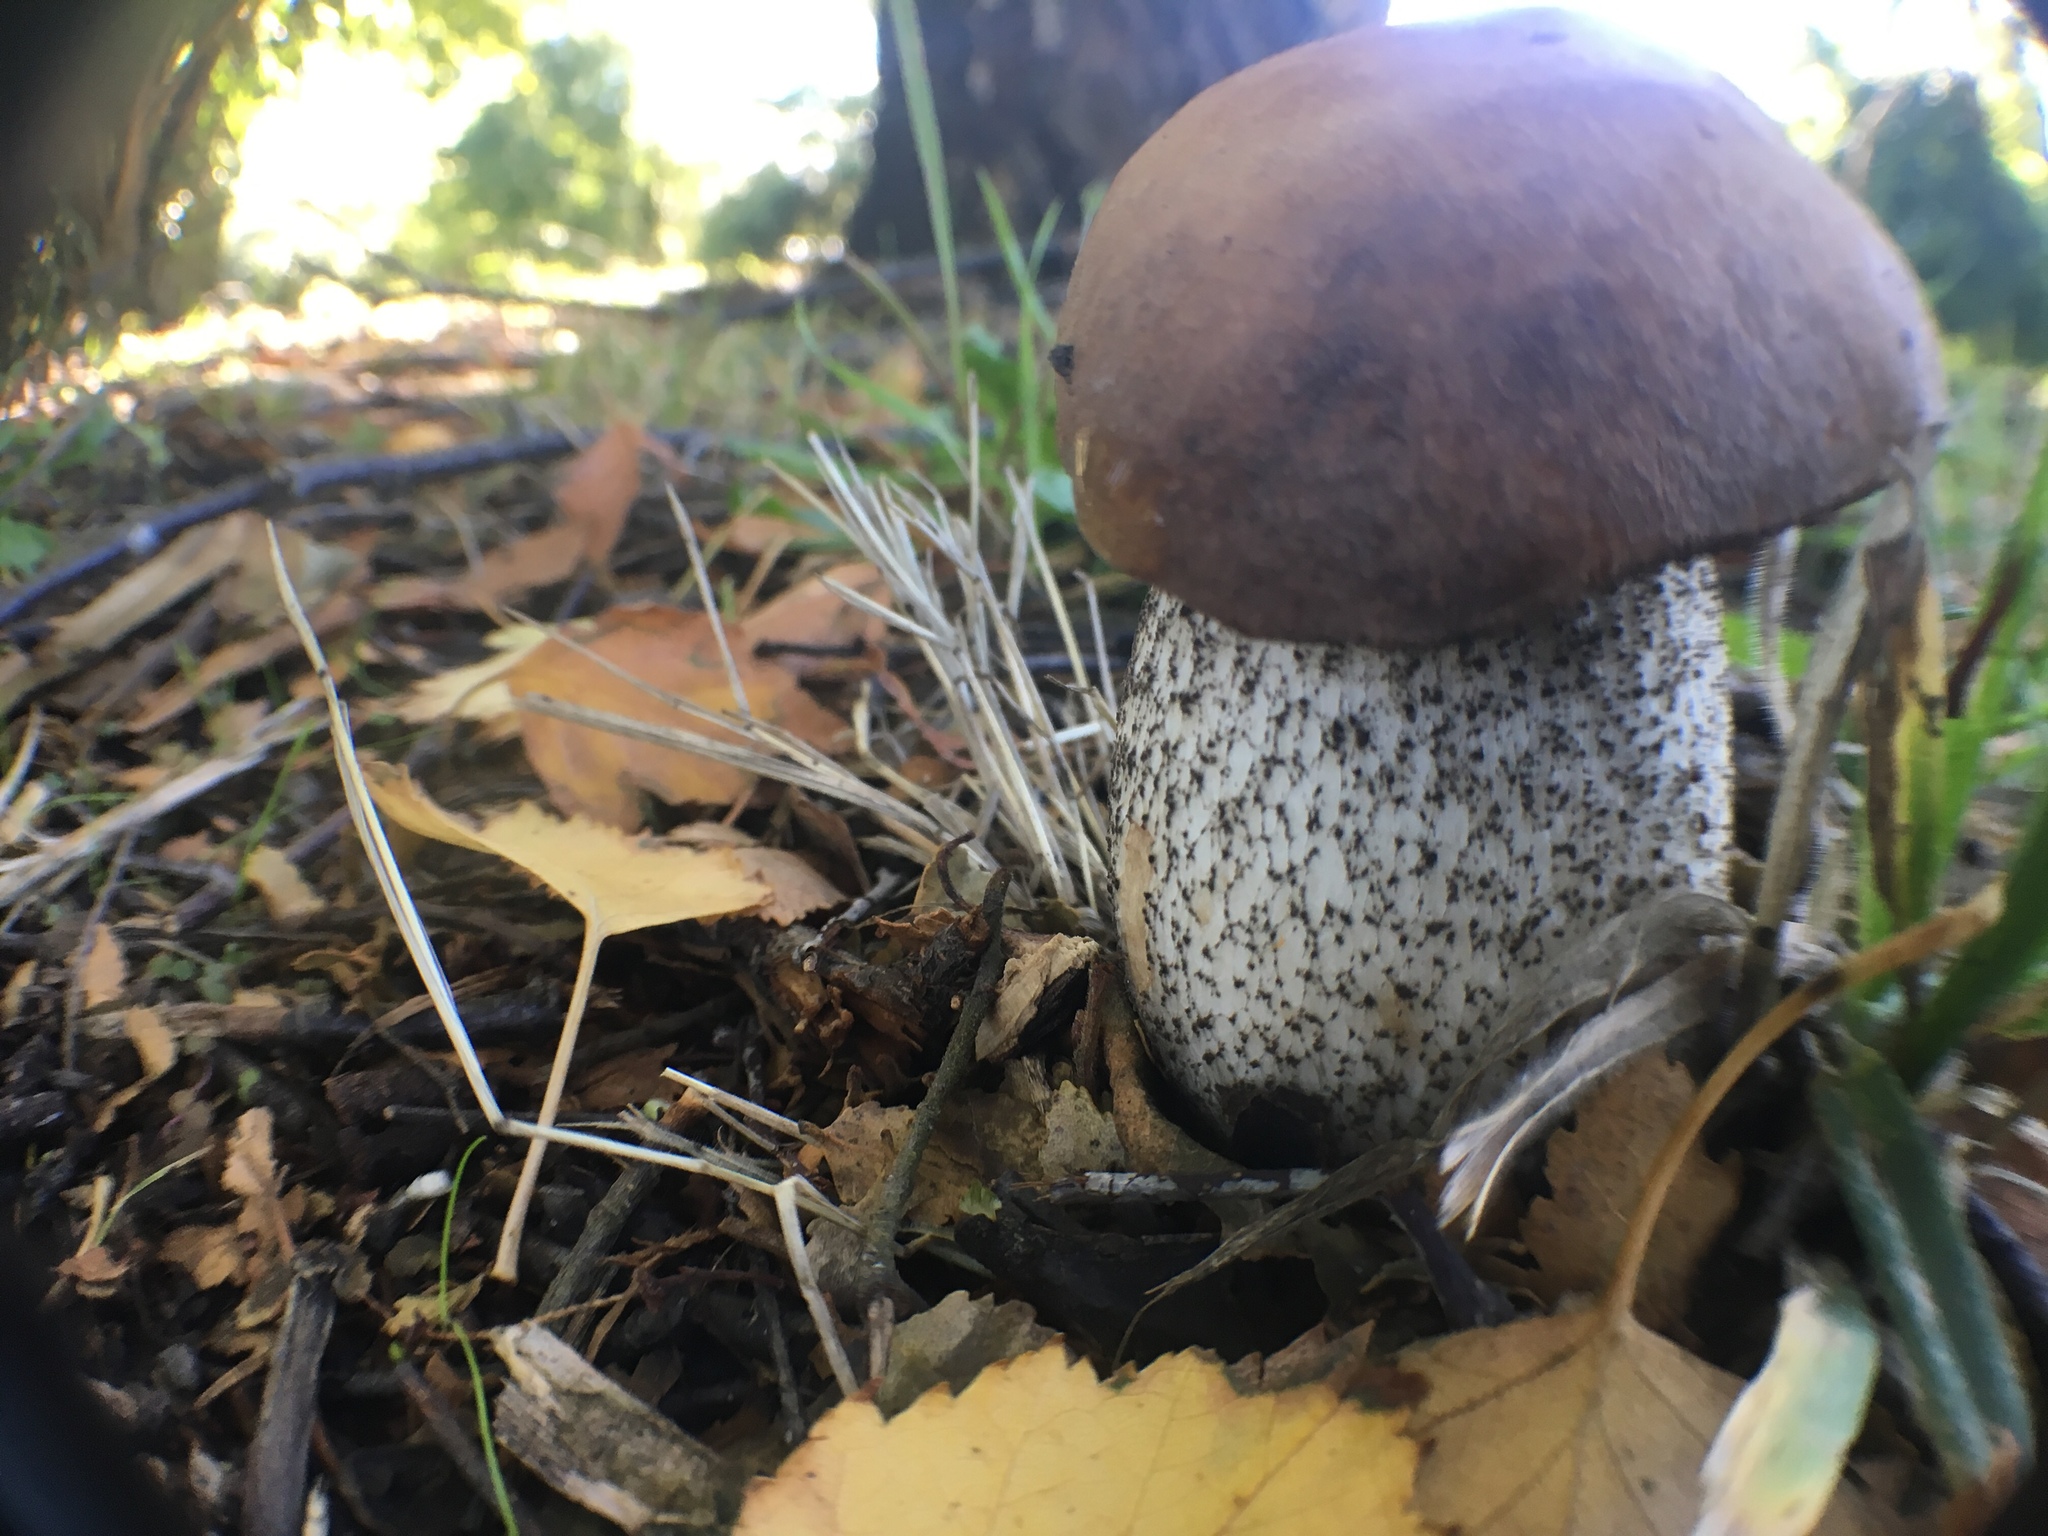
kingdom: Fungi
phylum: Basidiomycota
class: Agaricomycetes
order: Boletales
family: Boletaceae
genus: Leccinum
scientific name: Leccinum scabrum
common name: Blushing bolete
